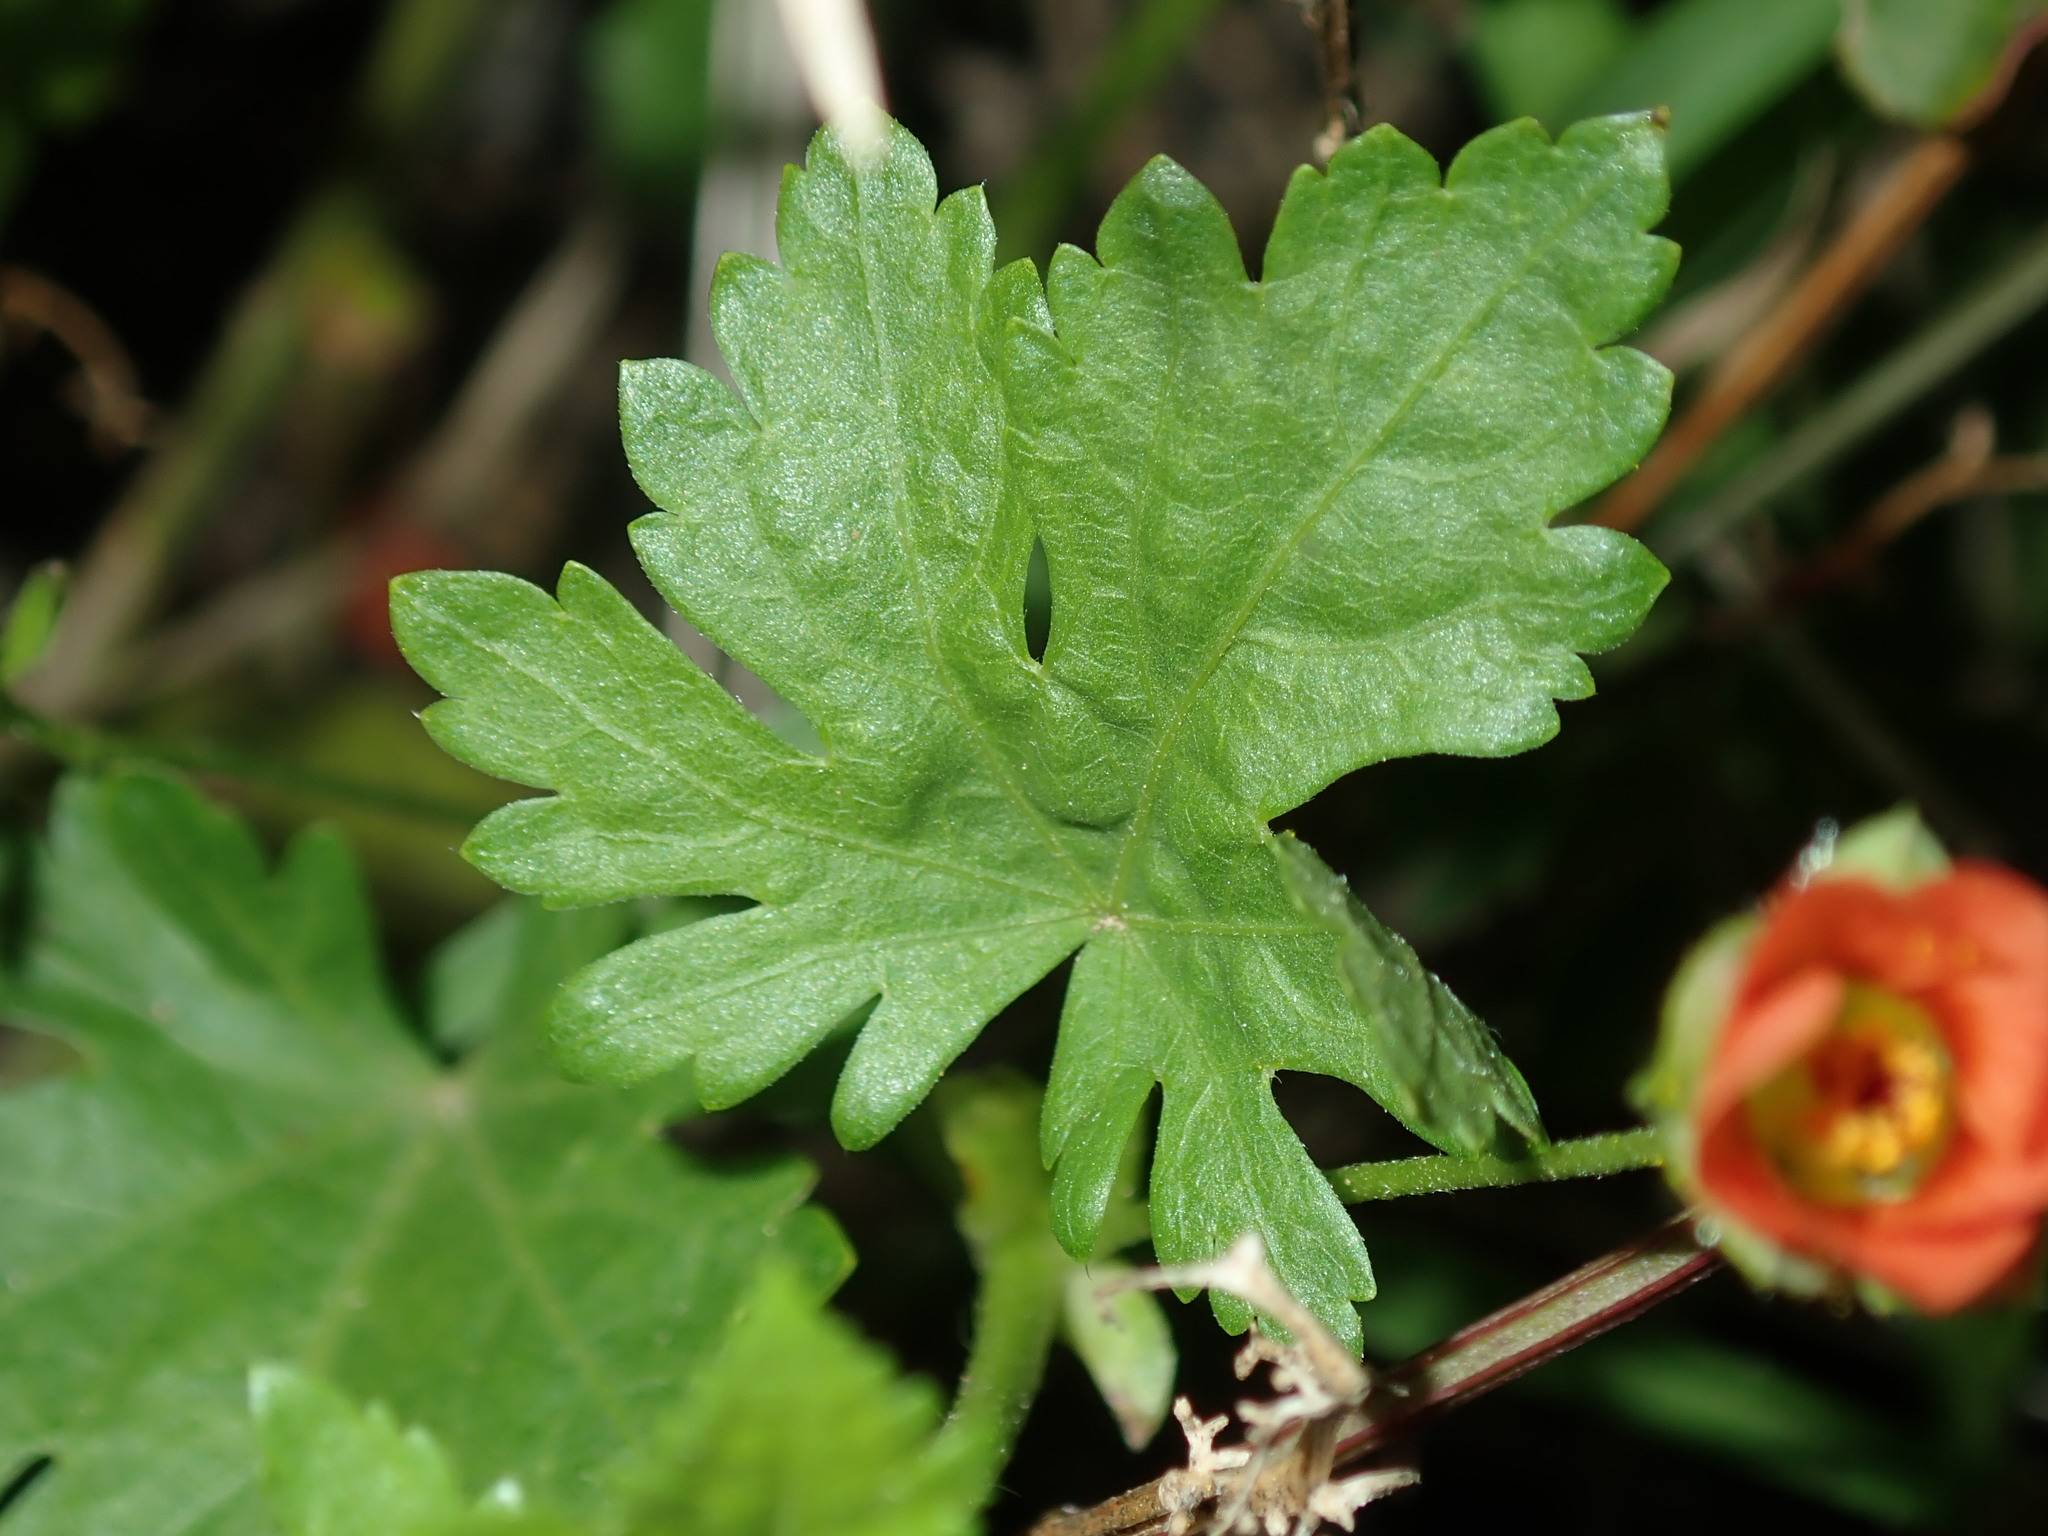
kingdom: Plantae
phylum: Tracheophyta
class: Magnoliopsida
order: Malvales
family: Malvaceae
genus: Modiola
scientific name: Modiola caroliniana
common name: Carolina bristlemallow
